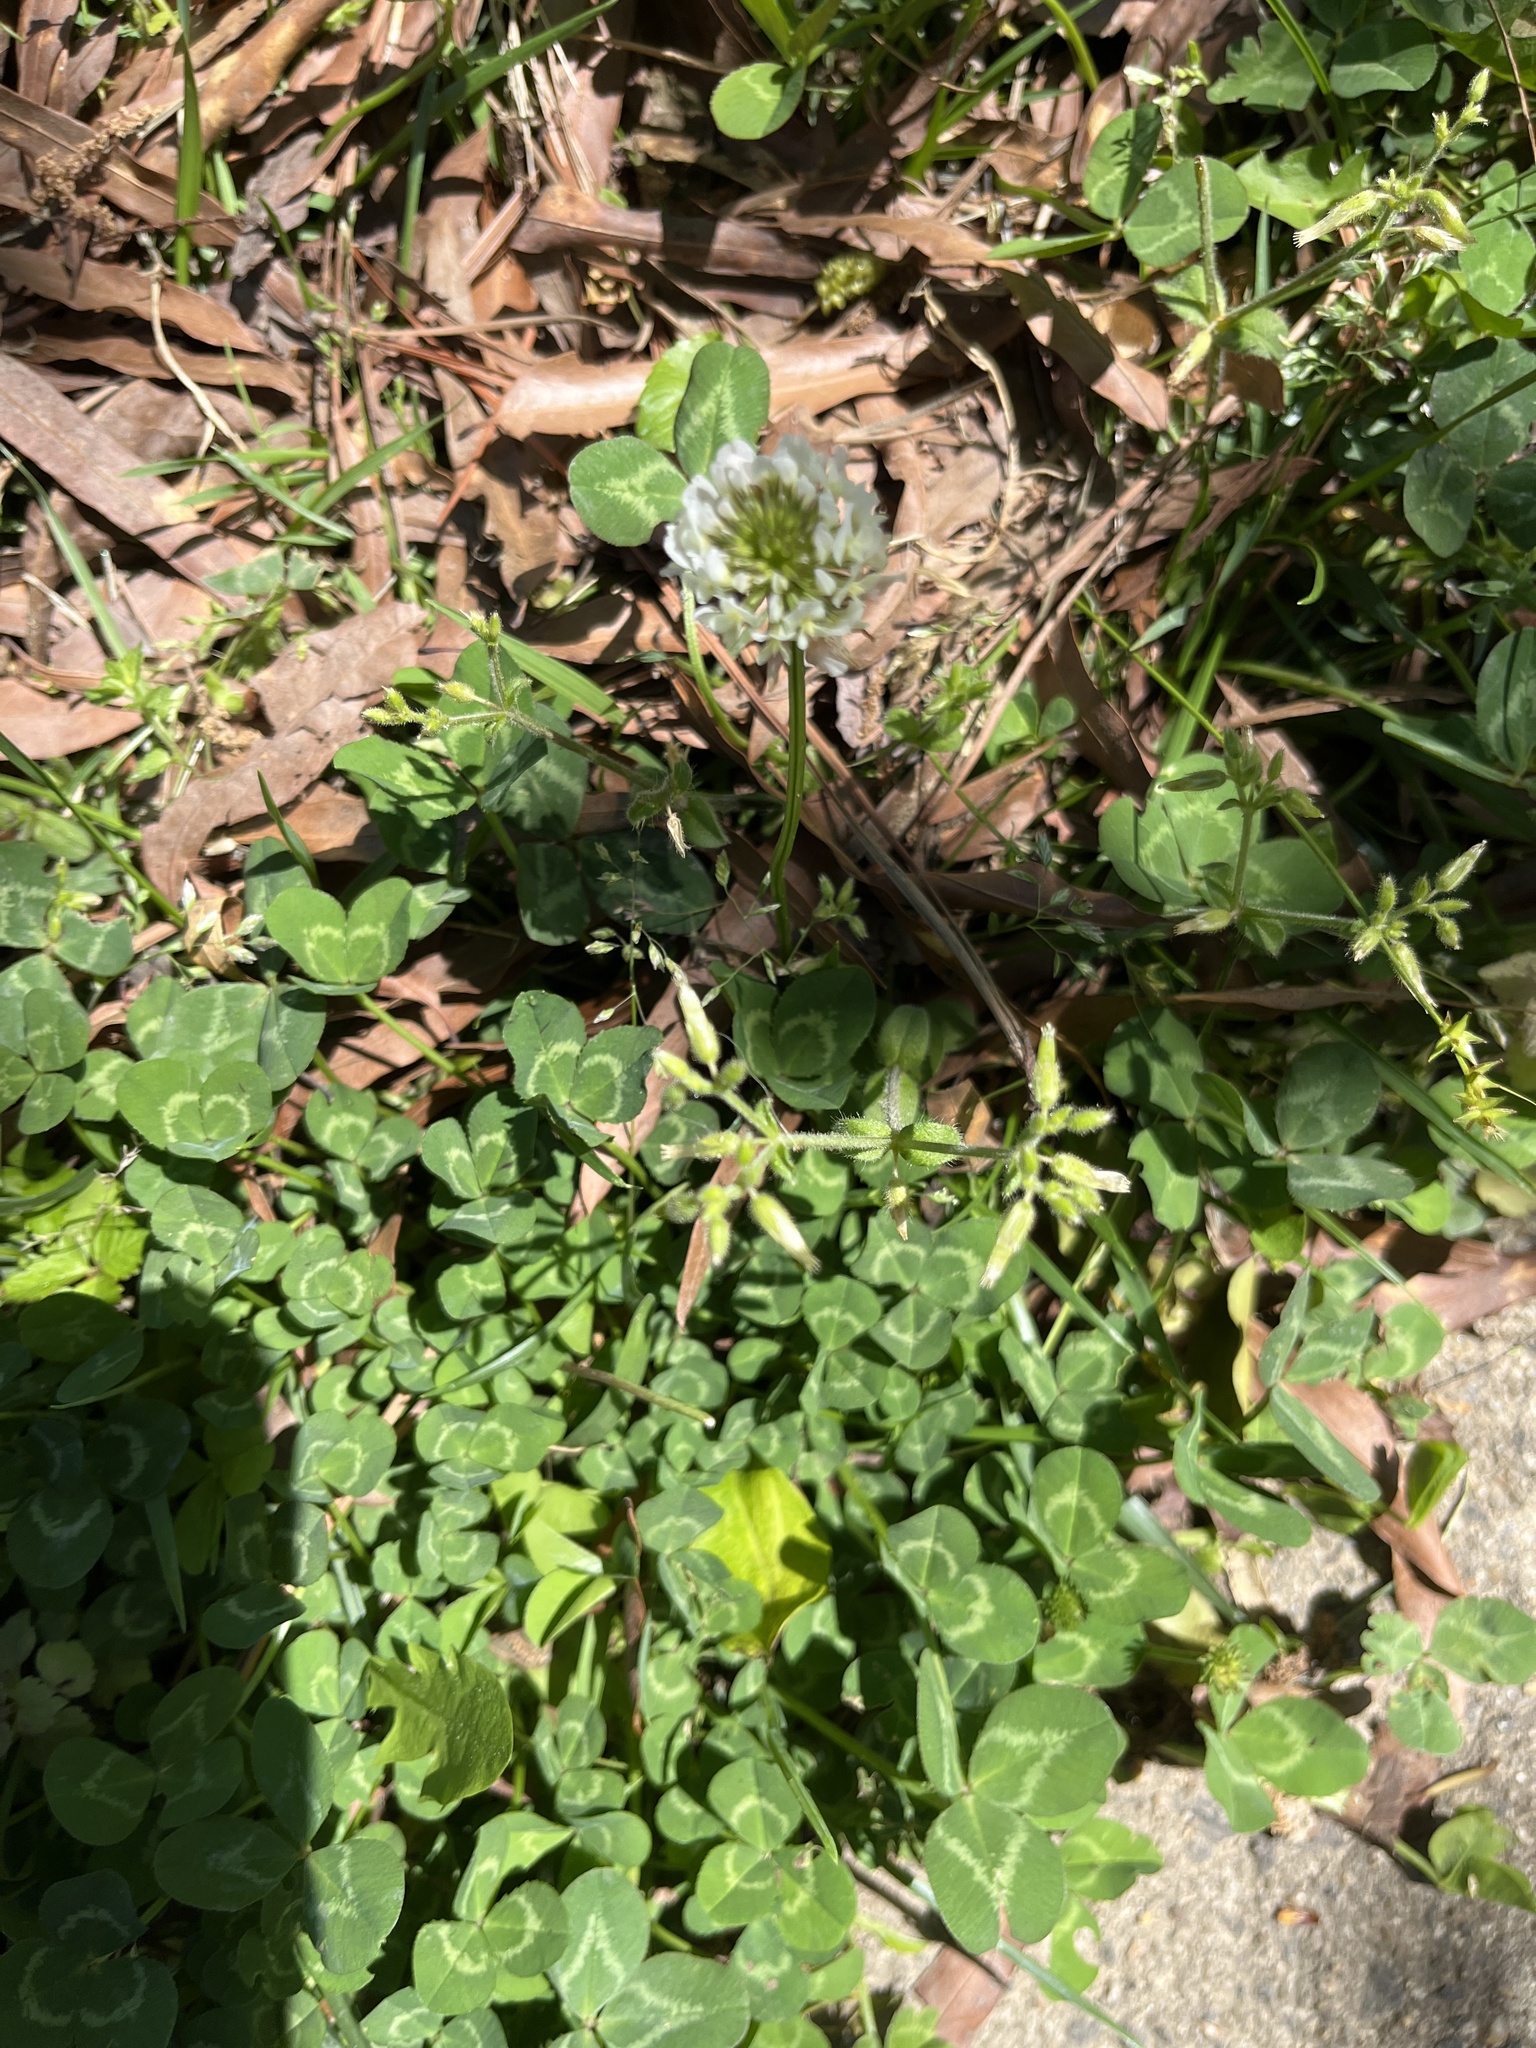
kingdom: Plantae
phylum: Tracheophyta
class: Magnoliopsida
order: Fabales
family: Fabaceae
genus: Trifolium
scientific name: Trifolium repens
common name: White clover
